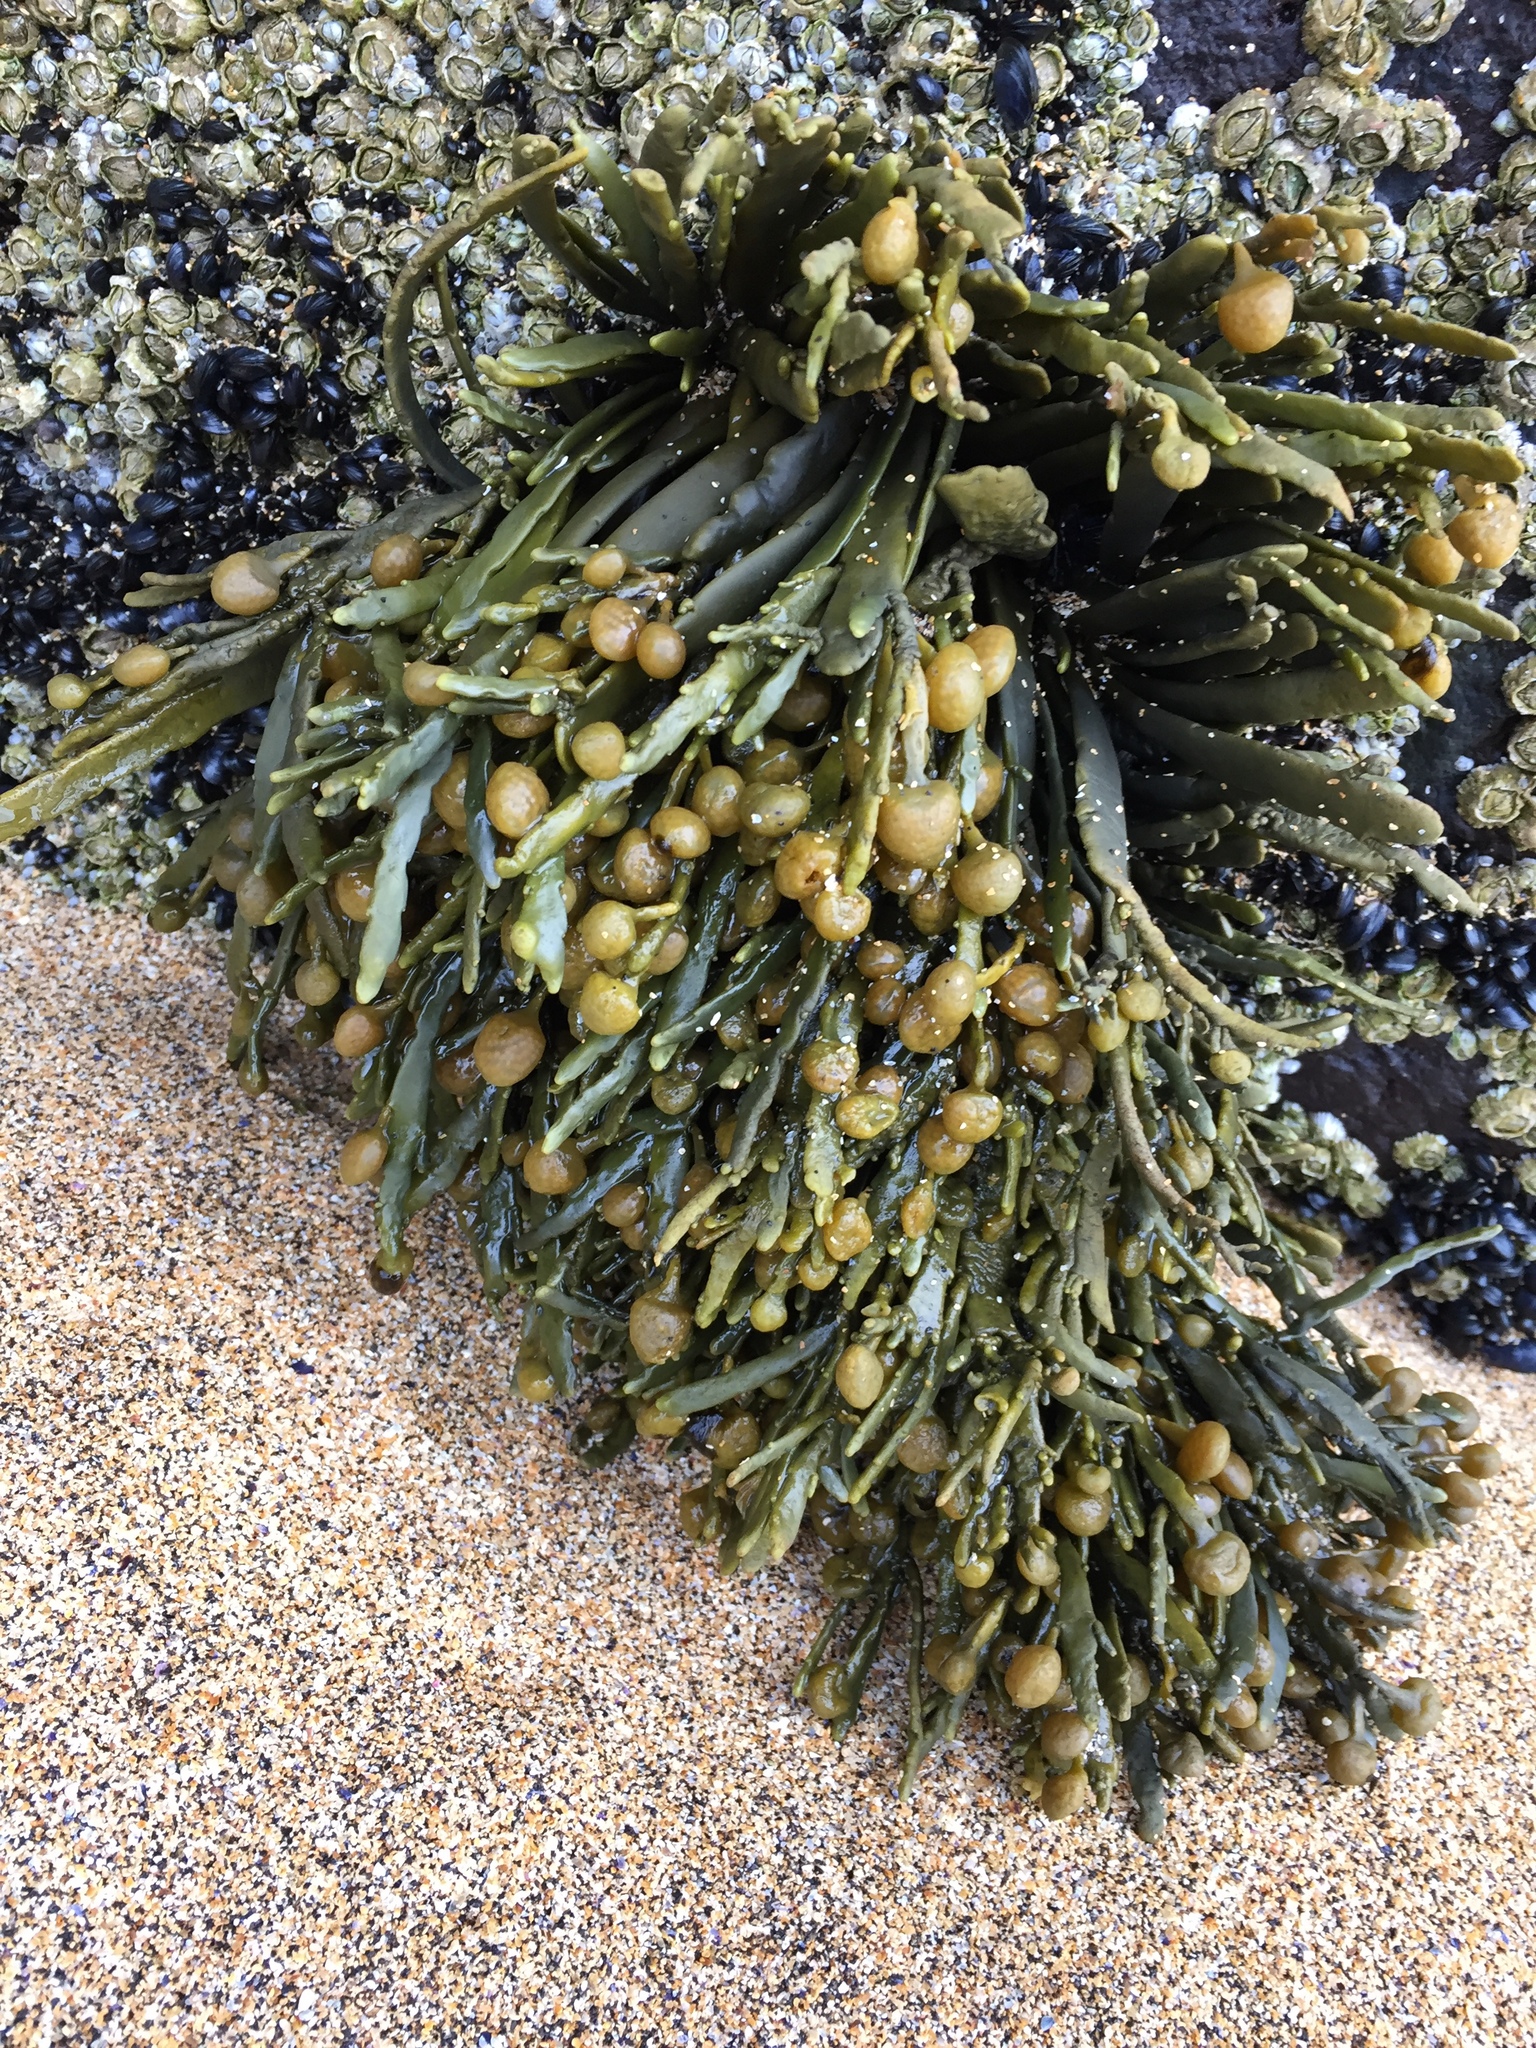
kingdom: Chromista
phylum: Ochrophyta
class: Phaeophyceae
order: Fucales
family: Fucaceae
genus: Ascophyllum
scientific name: Ascophyllum nodosum
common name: Knotted wrack
